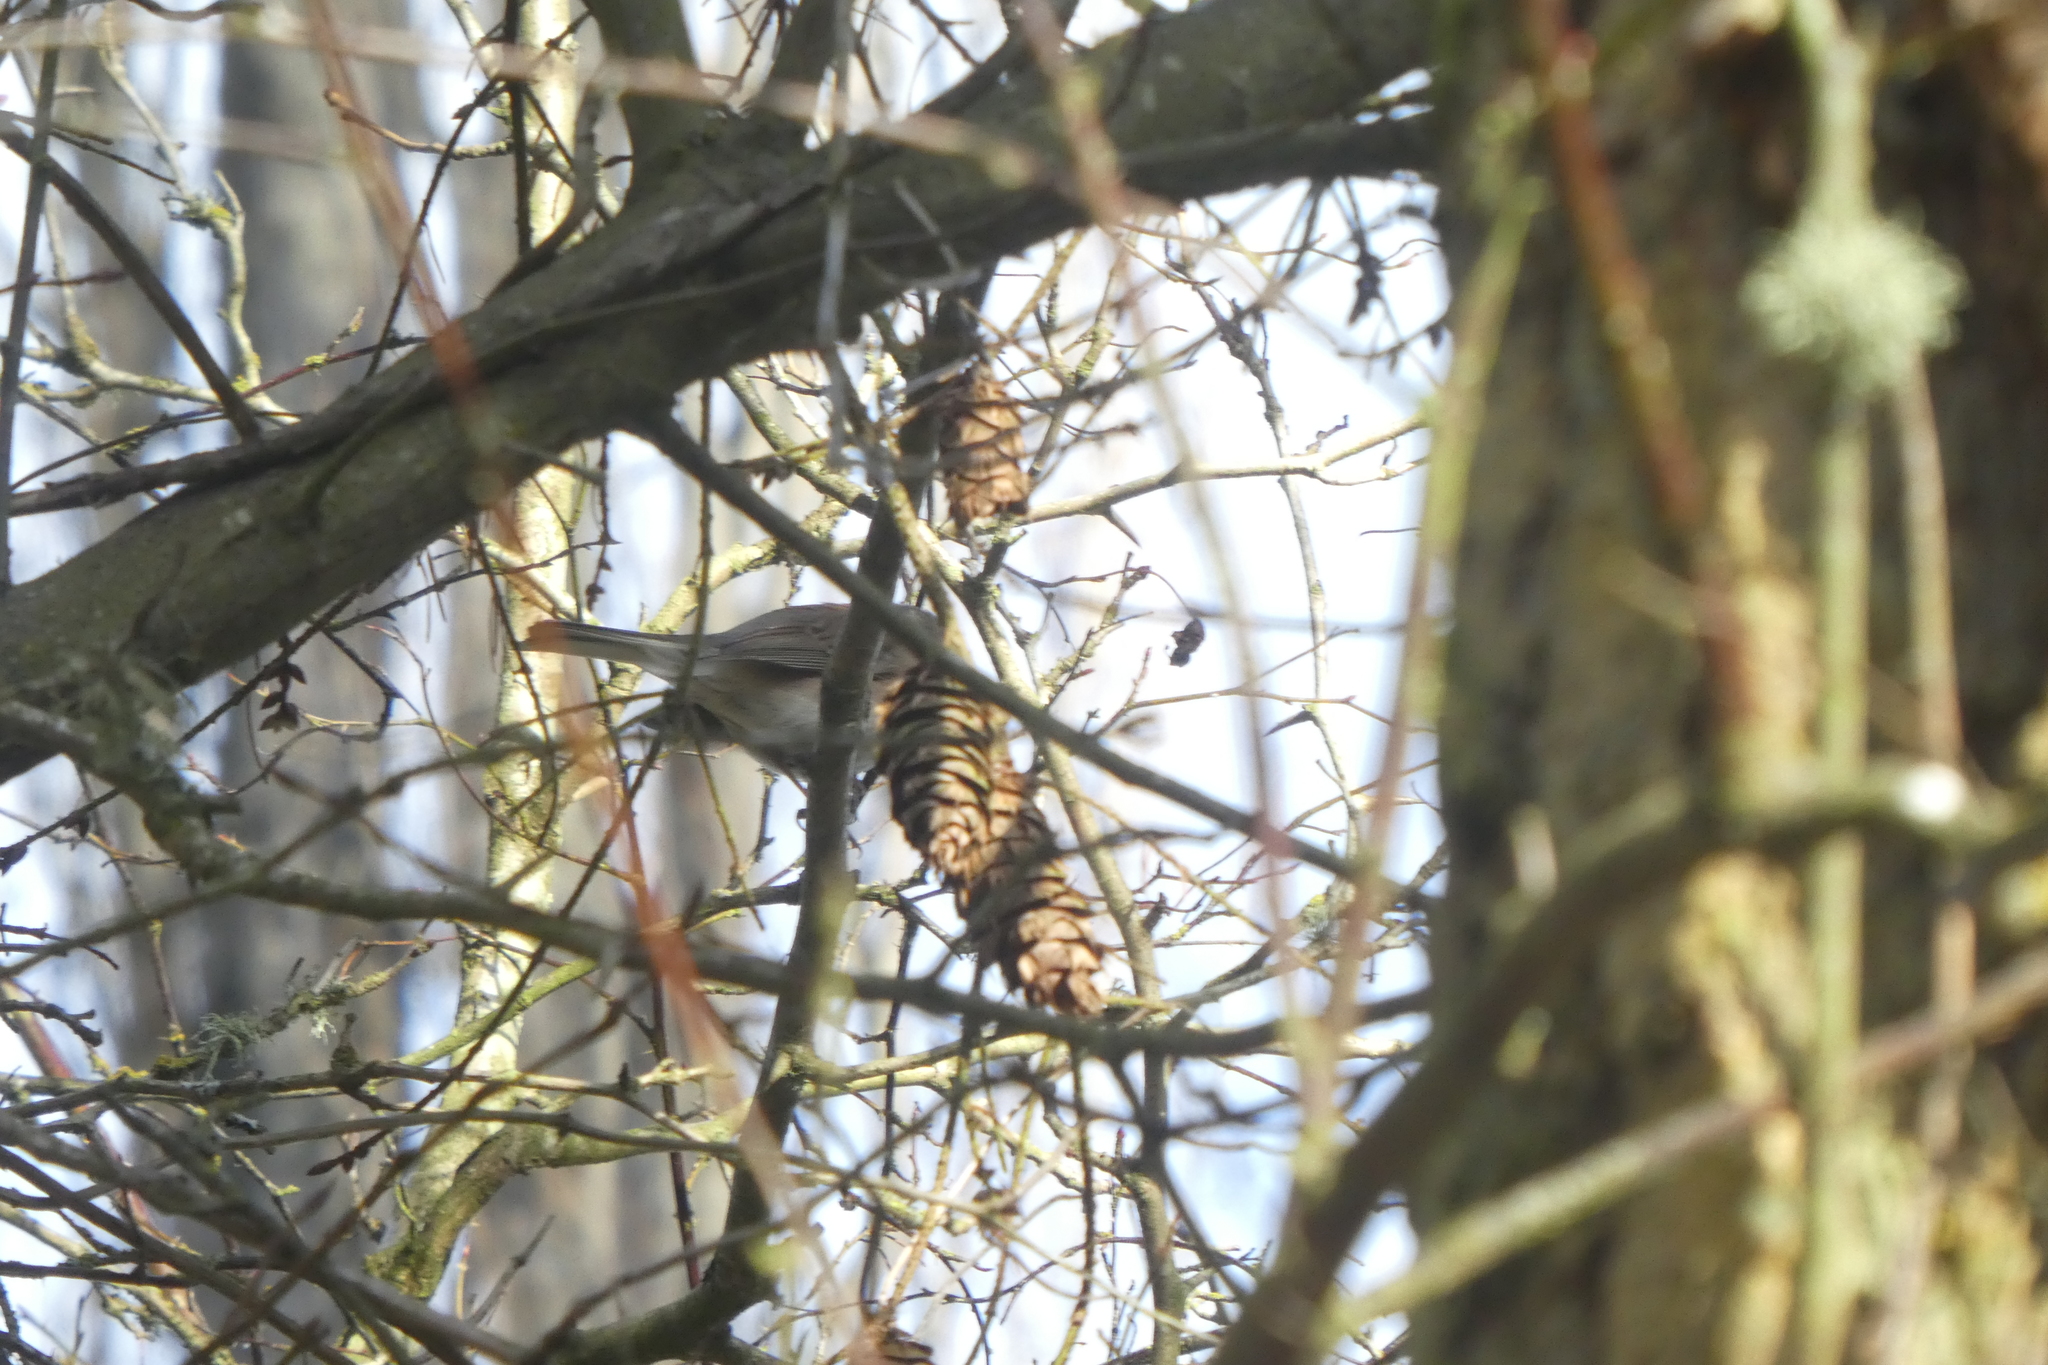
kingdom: Animalia
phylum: Chordata
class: Aves
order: Passeriformes
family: Passerellidae
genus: Junco
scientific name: Junco hyemalis
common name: Dark-eyed junco
